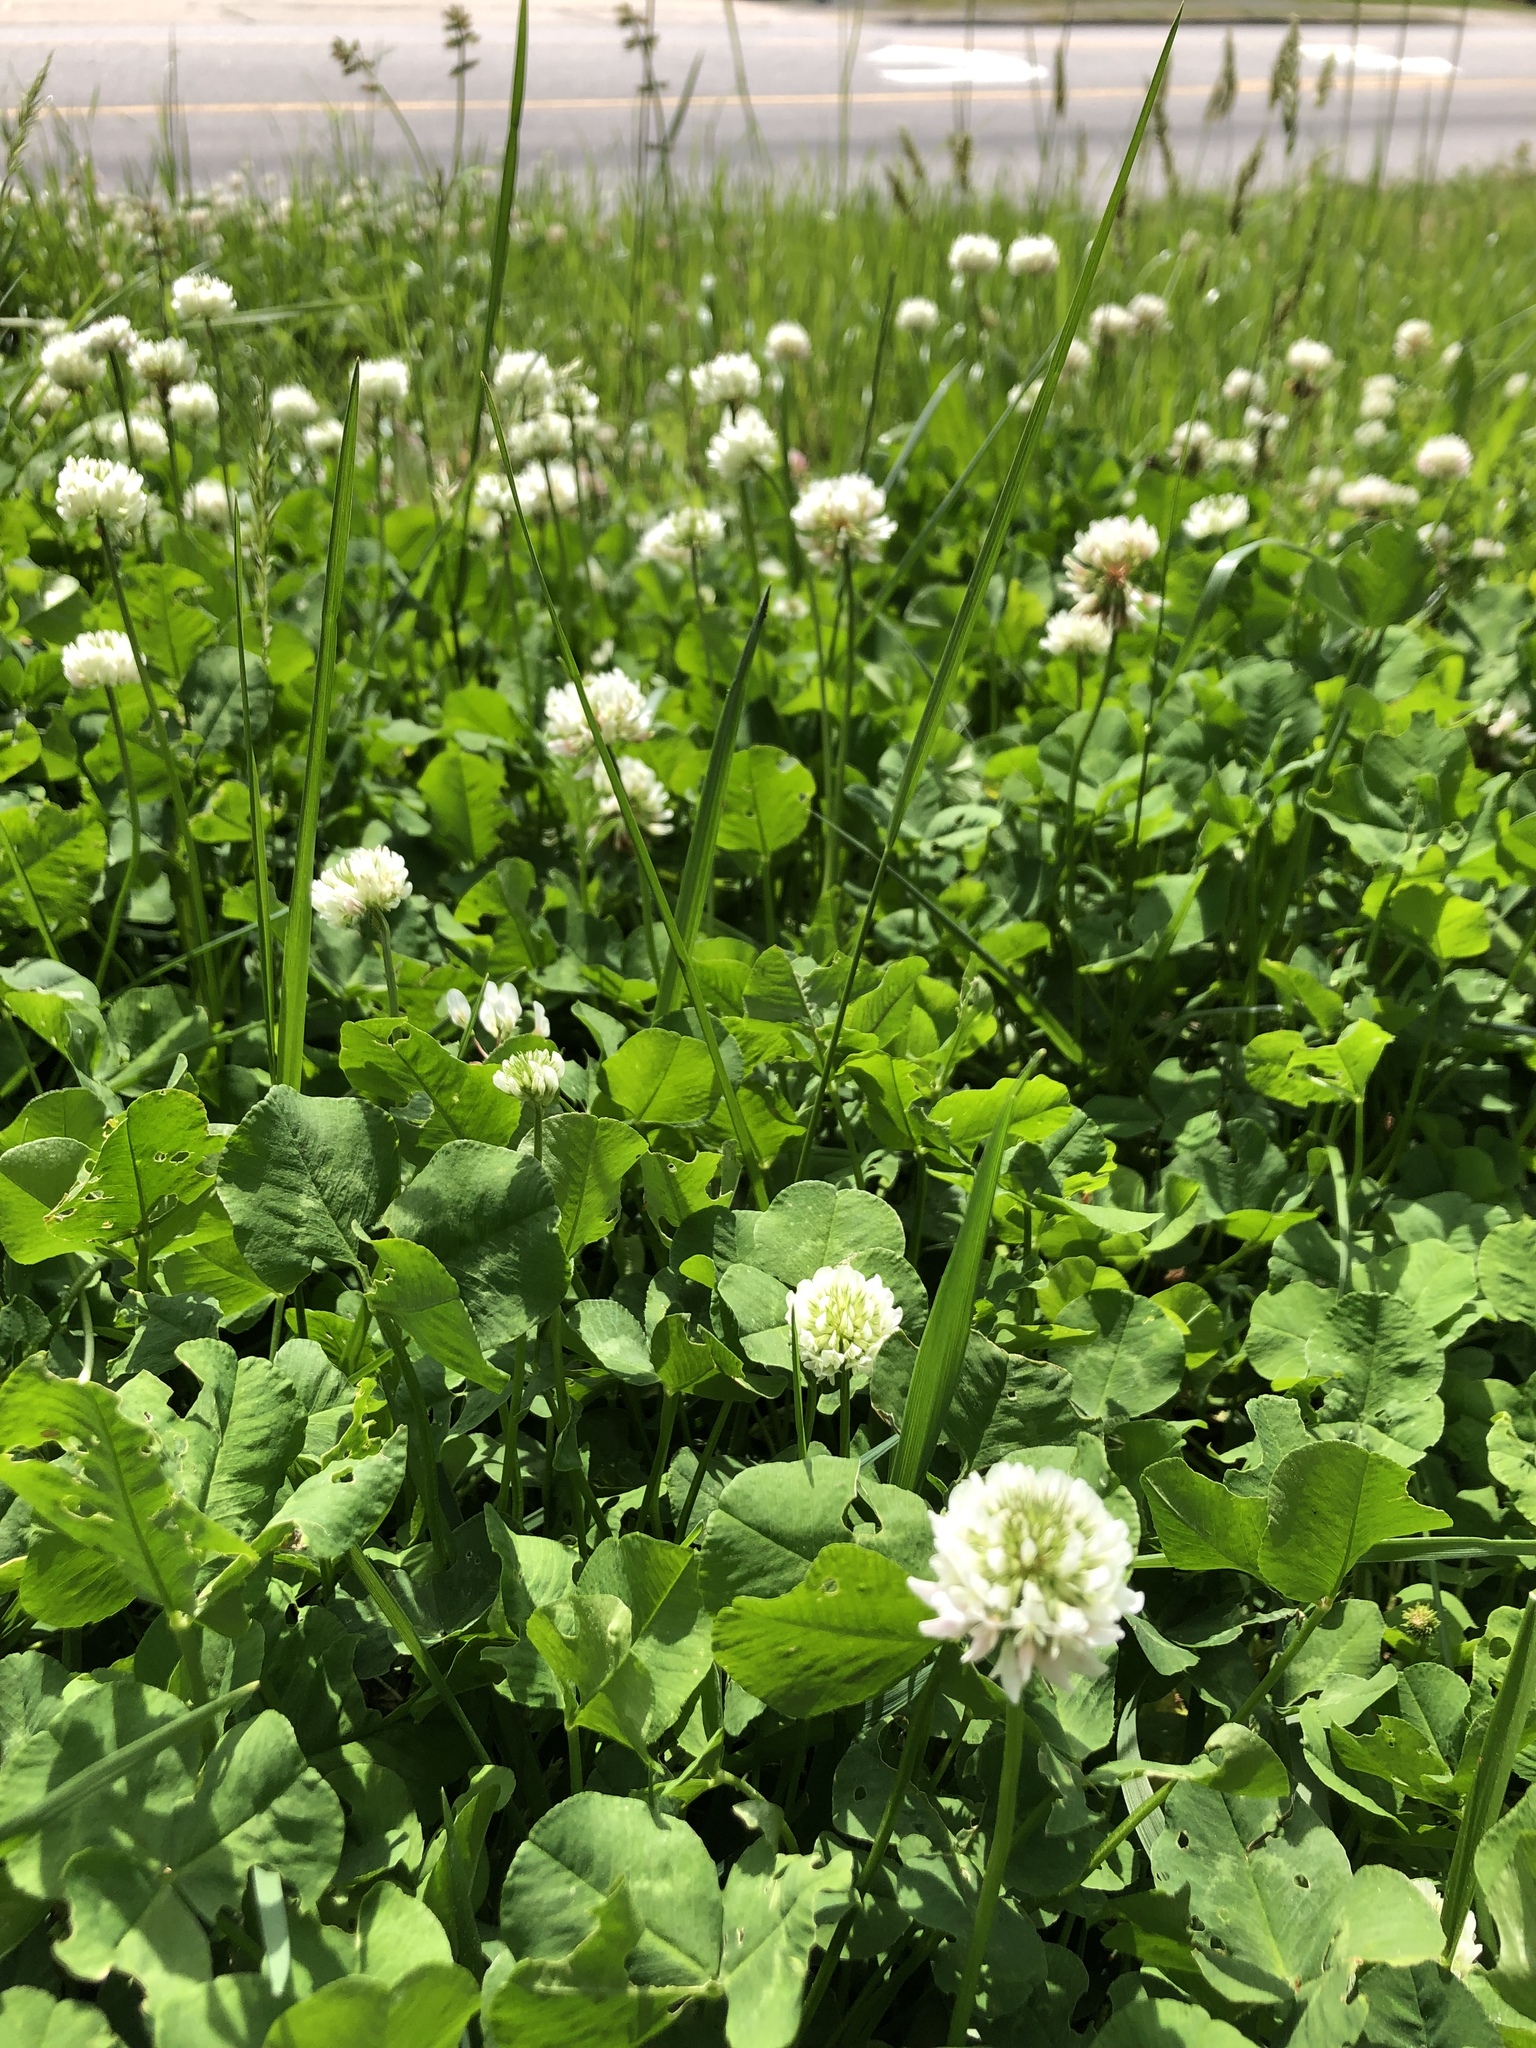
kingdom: Plantae
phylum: Tracheophyta
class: Magnoliopsida
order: Fabales
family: Fabaceae
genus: Trifolium
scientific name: Trifolium repens
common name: White clover
